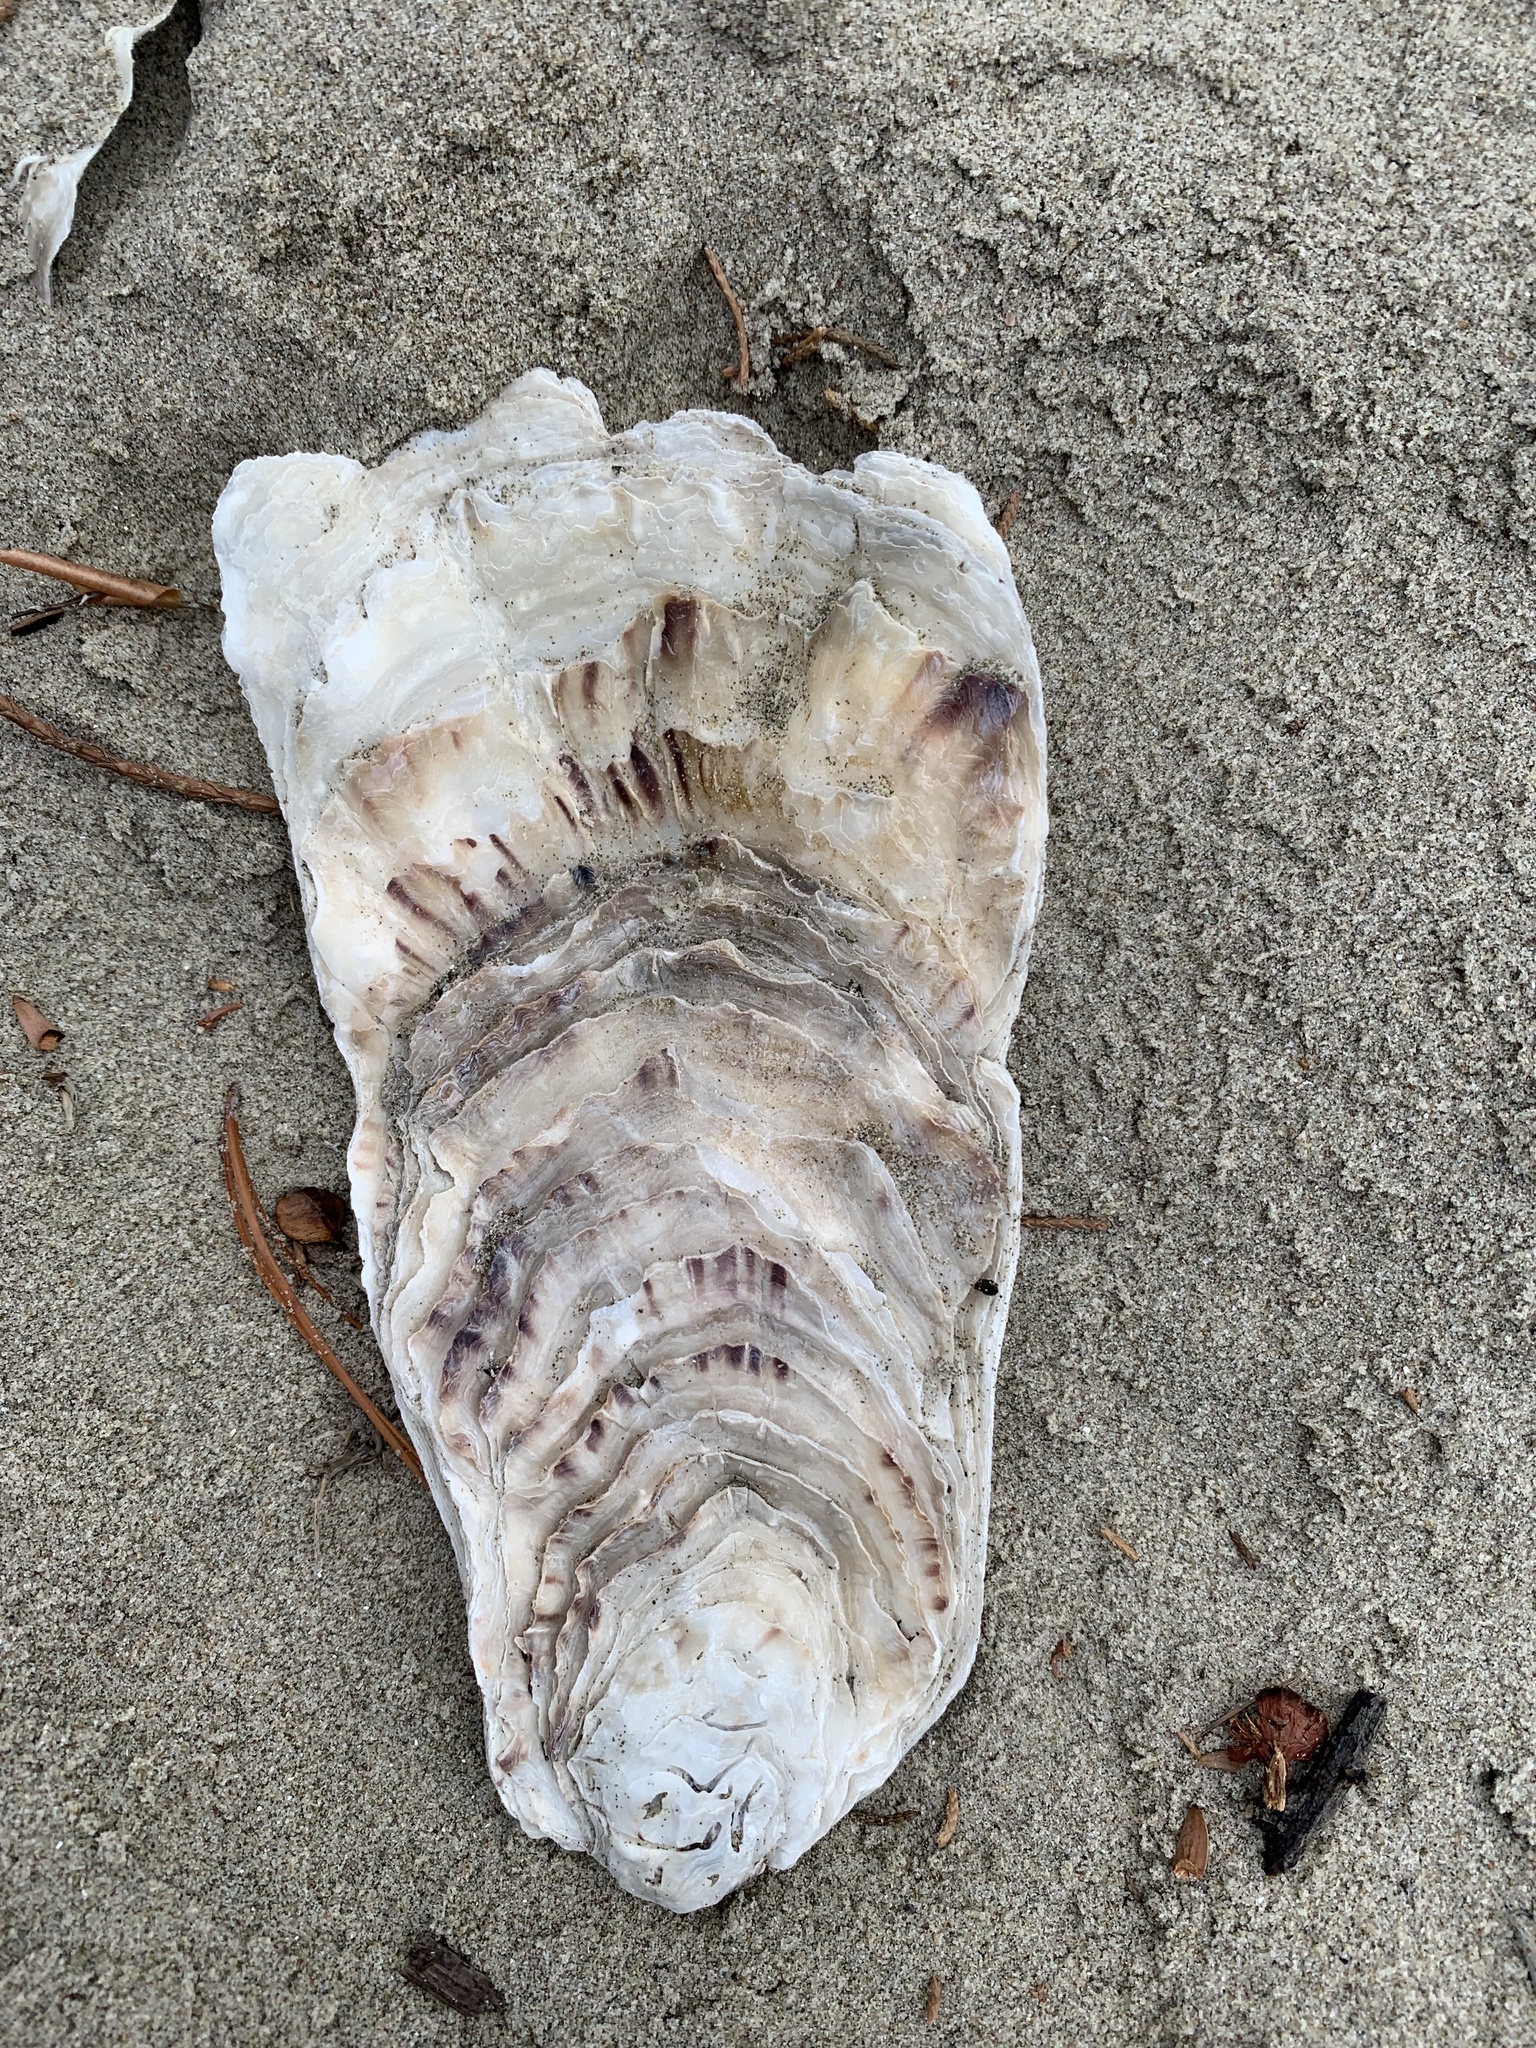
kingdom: Animalia
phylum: Mollusca
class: Bivalvia
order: Ostreida
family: Ostreidae
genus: Magallana
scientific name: Magallana gigas
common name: Pacific oyster
